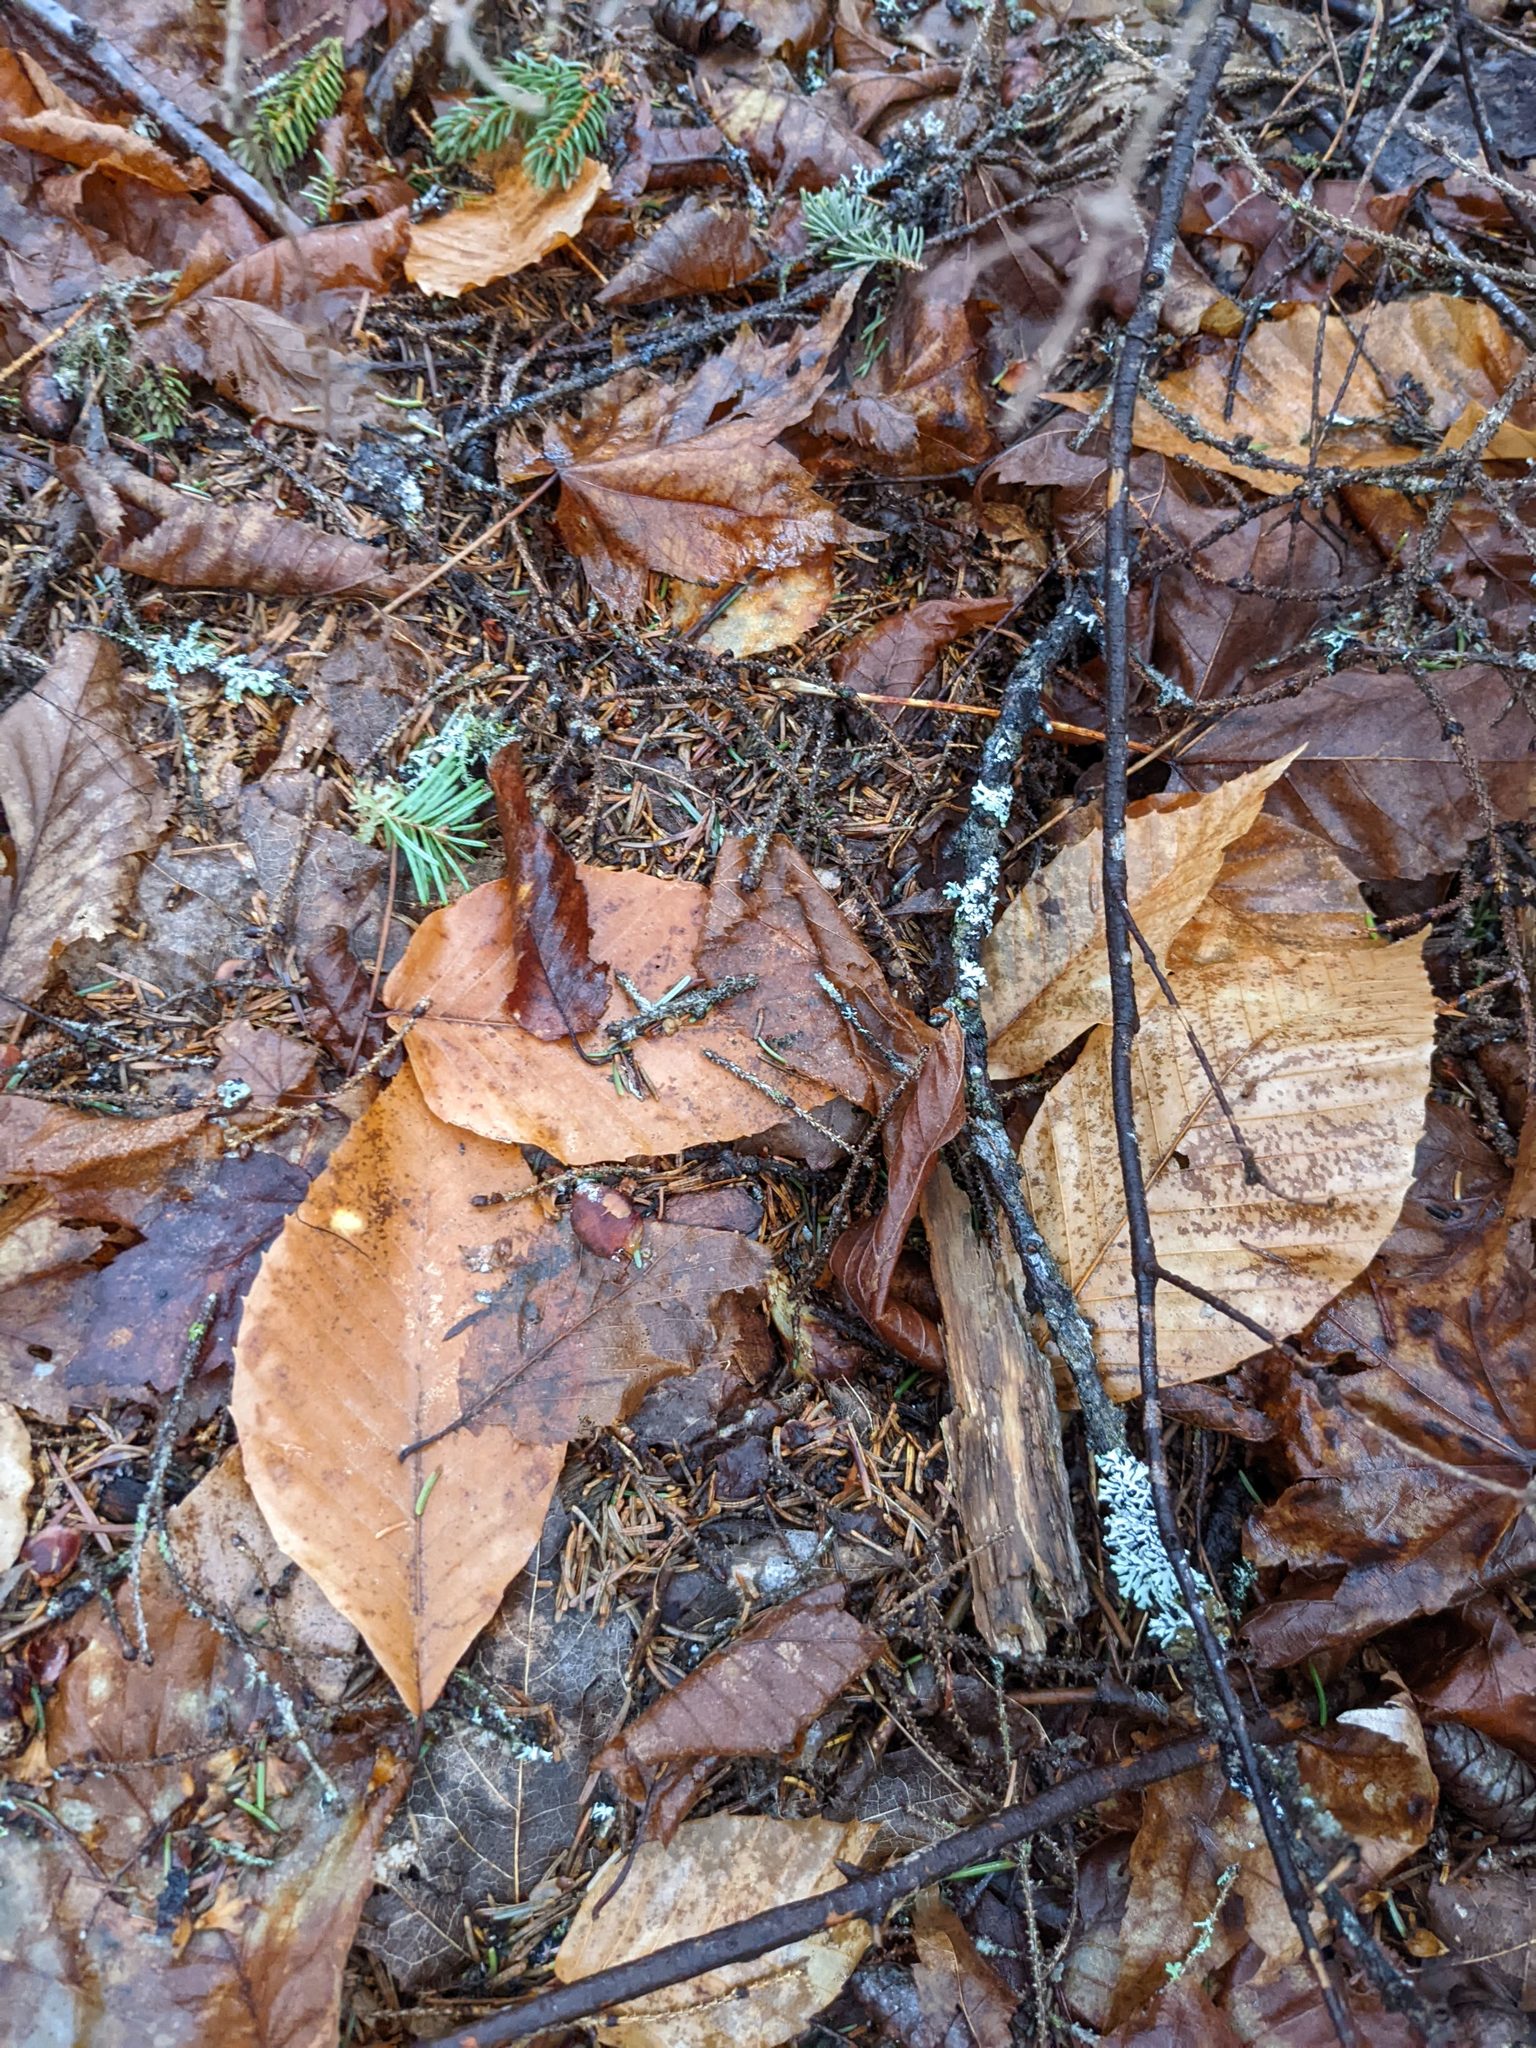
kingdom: Plantae
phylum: Tracheophyta
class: Magnoliopsida
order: Fagales
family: Fagaceae
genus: Fagus
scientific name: Fagus grandifolia
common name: American beech
